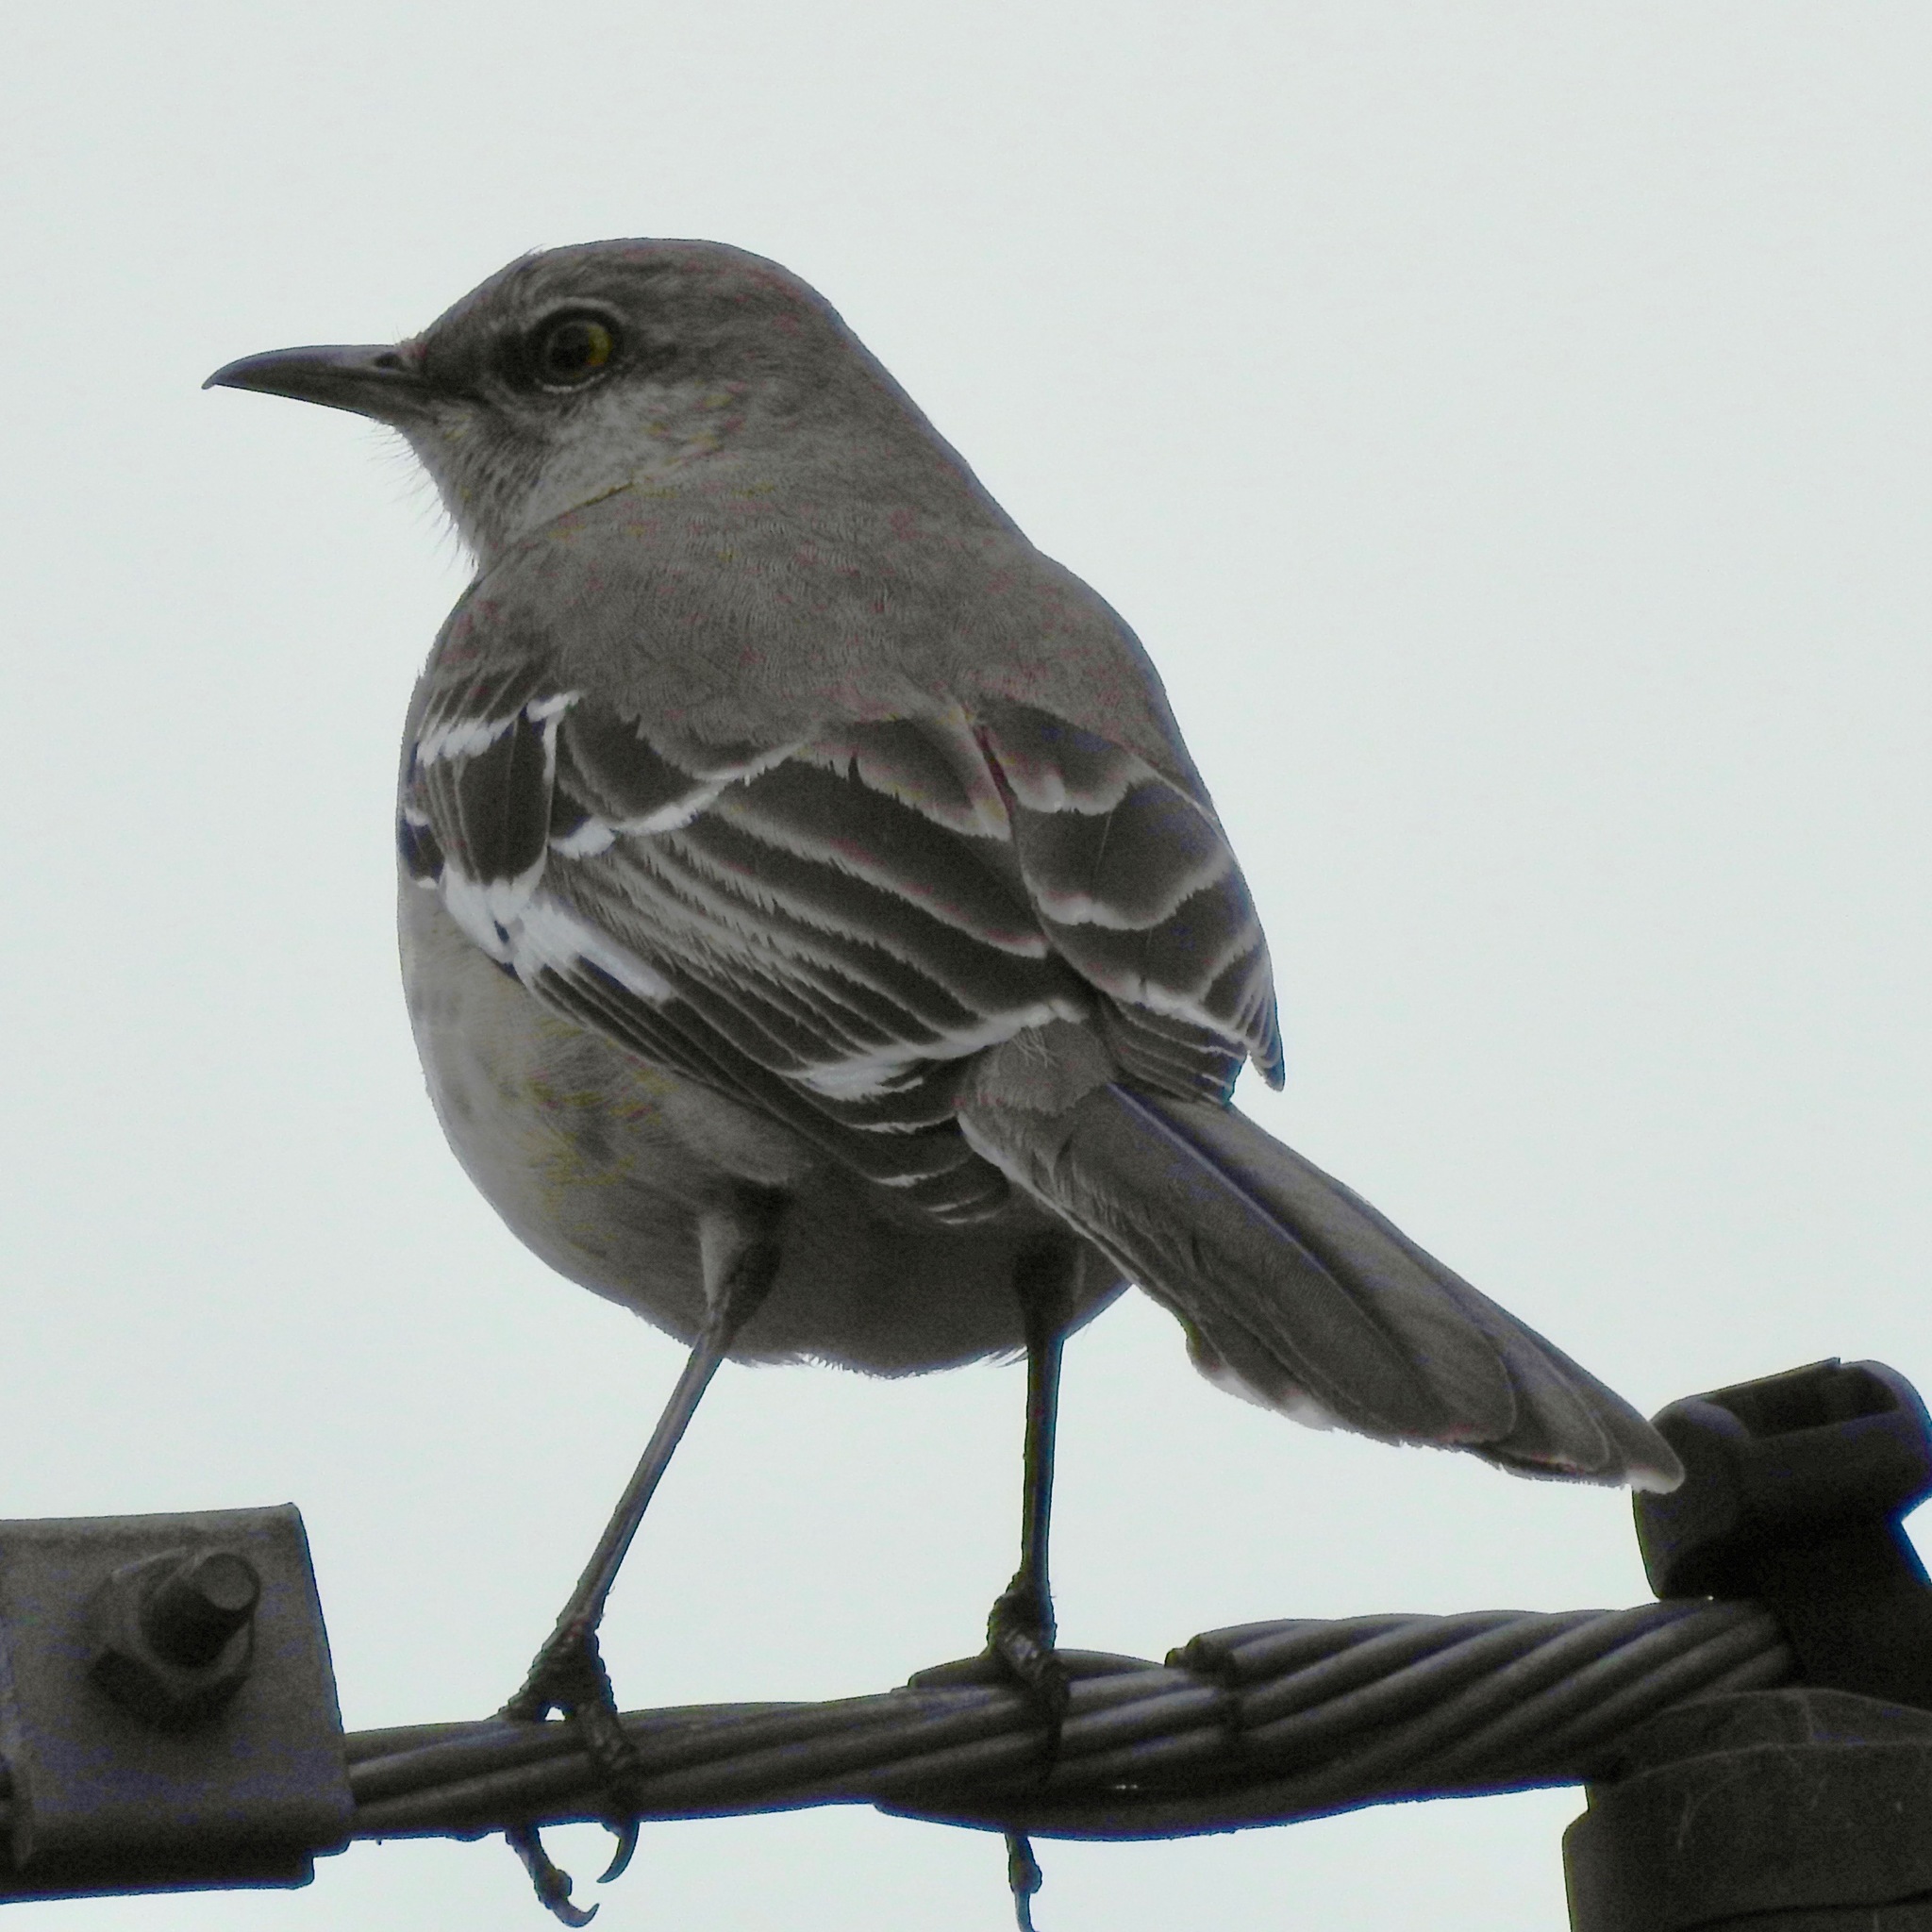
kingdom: Animalia
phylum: Chordata
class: Aves
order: Passeriformes
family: Mimidae
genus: Mimus
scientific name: Mimus polyglottos
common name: Northern mockingbird
